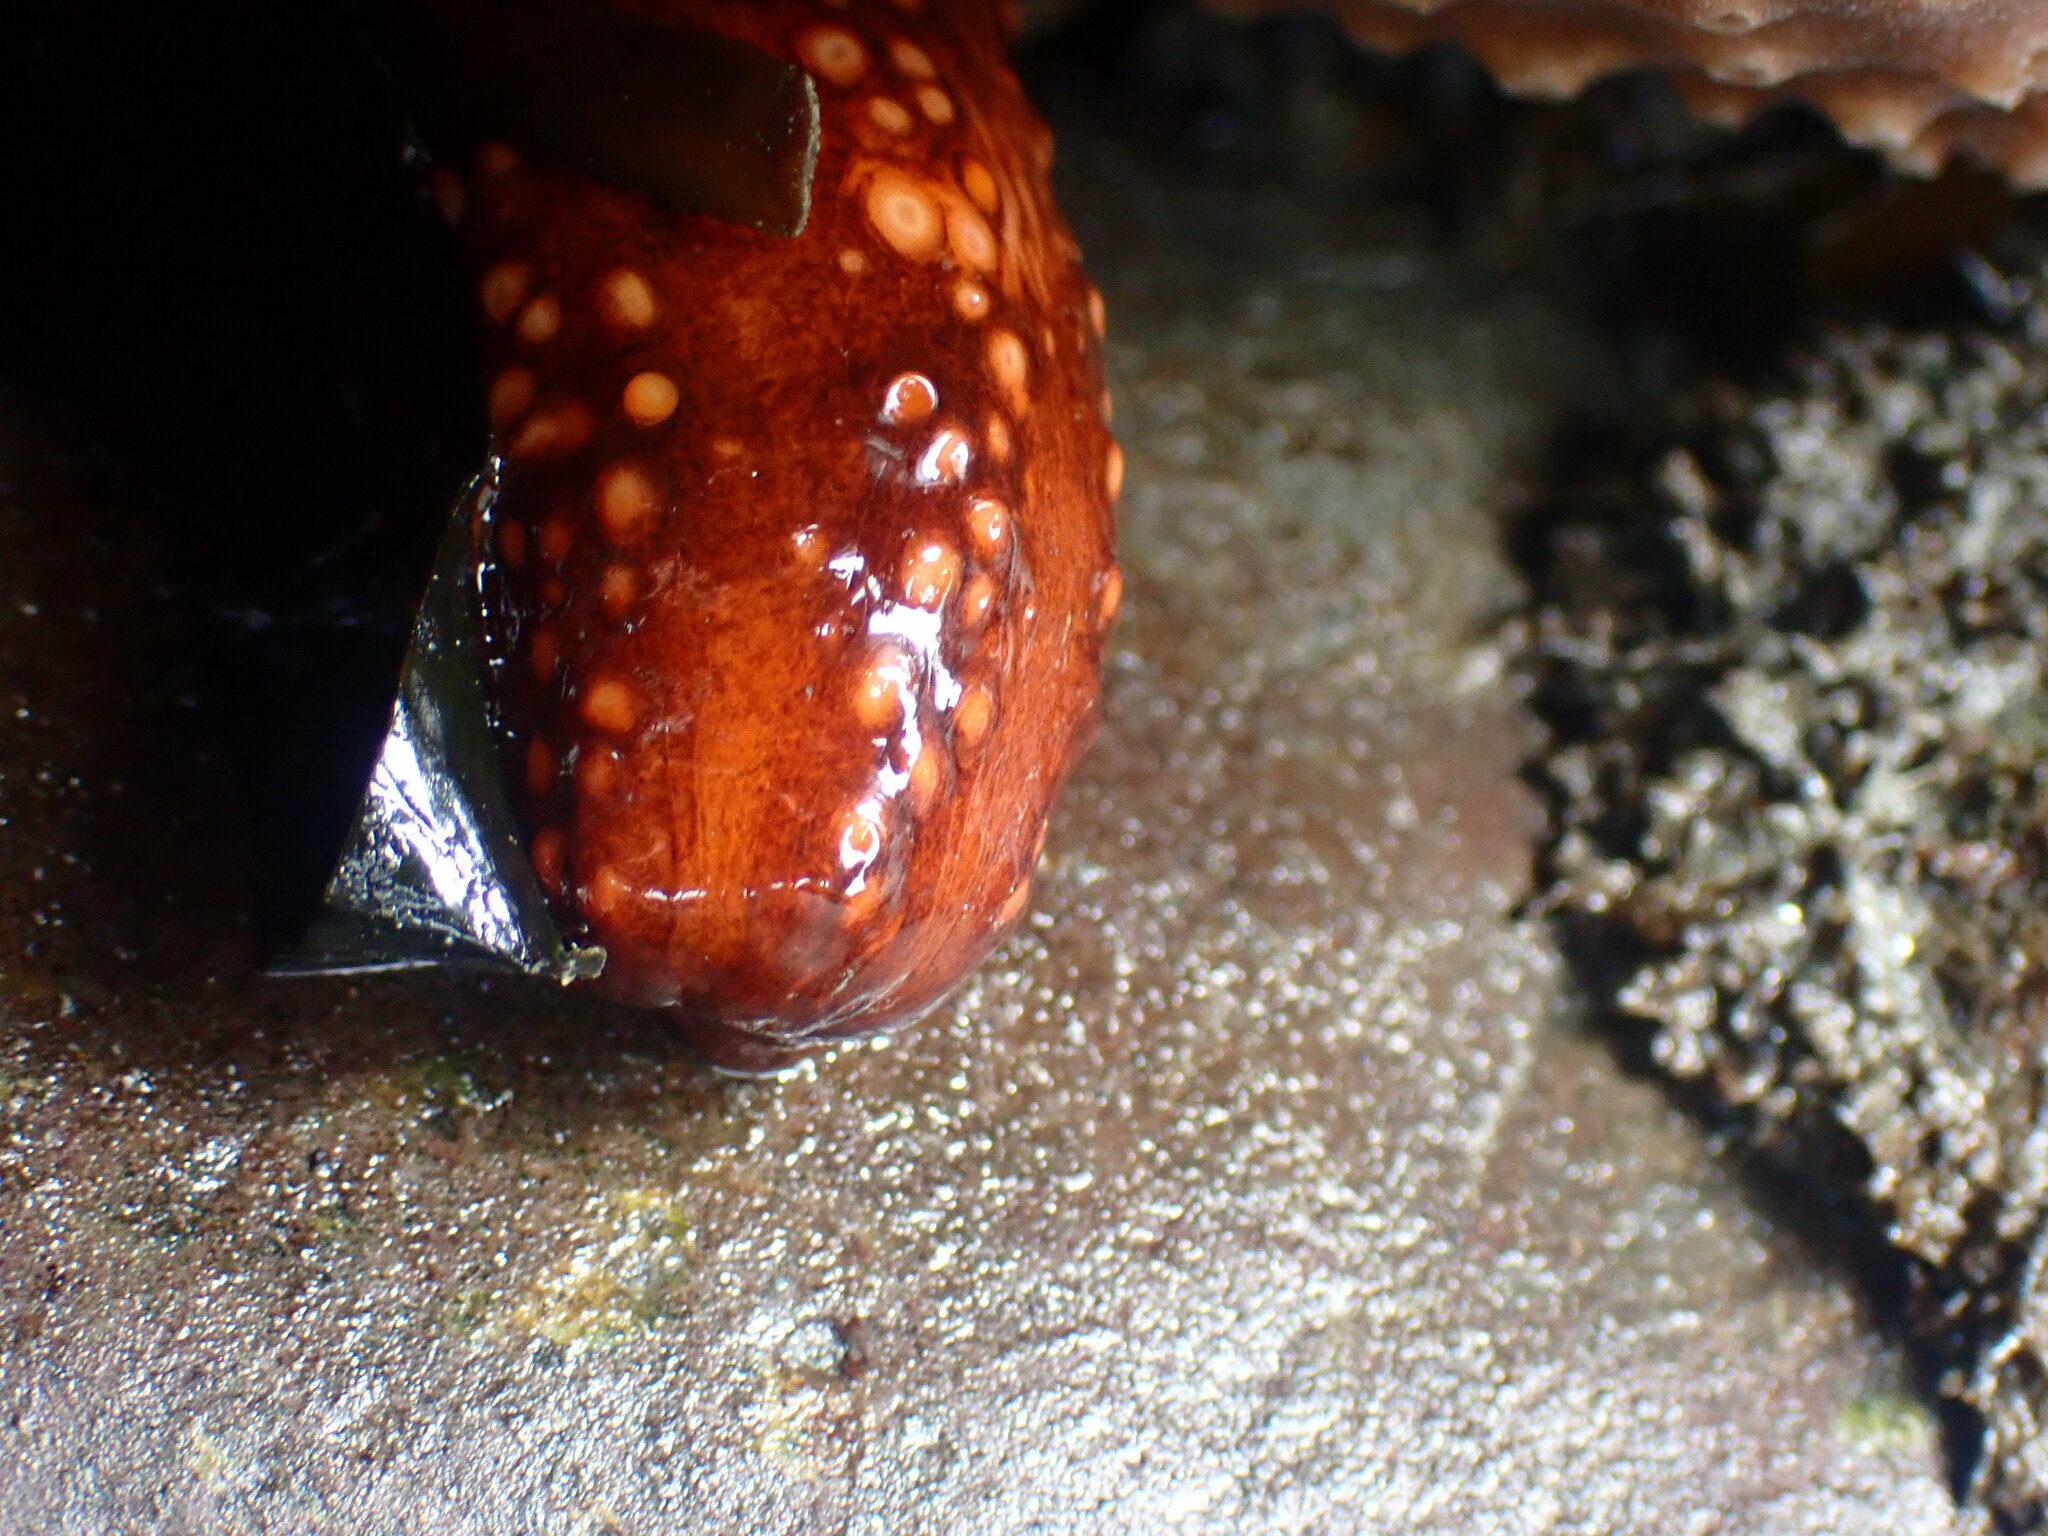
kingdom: Animalia
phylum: Echinodermata
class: Holothuroidea
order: Dendrochirotida
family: Cucumariidae
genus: Cucumaria
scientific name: Cucumaria miniata
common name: Orange sea cucumber
